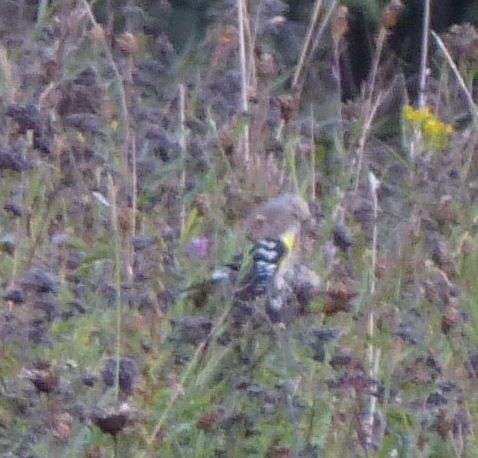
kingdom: Animalia
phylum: Chordata
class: Aves
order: Passeriformes
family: Fringillidae
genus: Carduelis
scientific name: Carduelis carduelis
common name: European goldfinch
